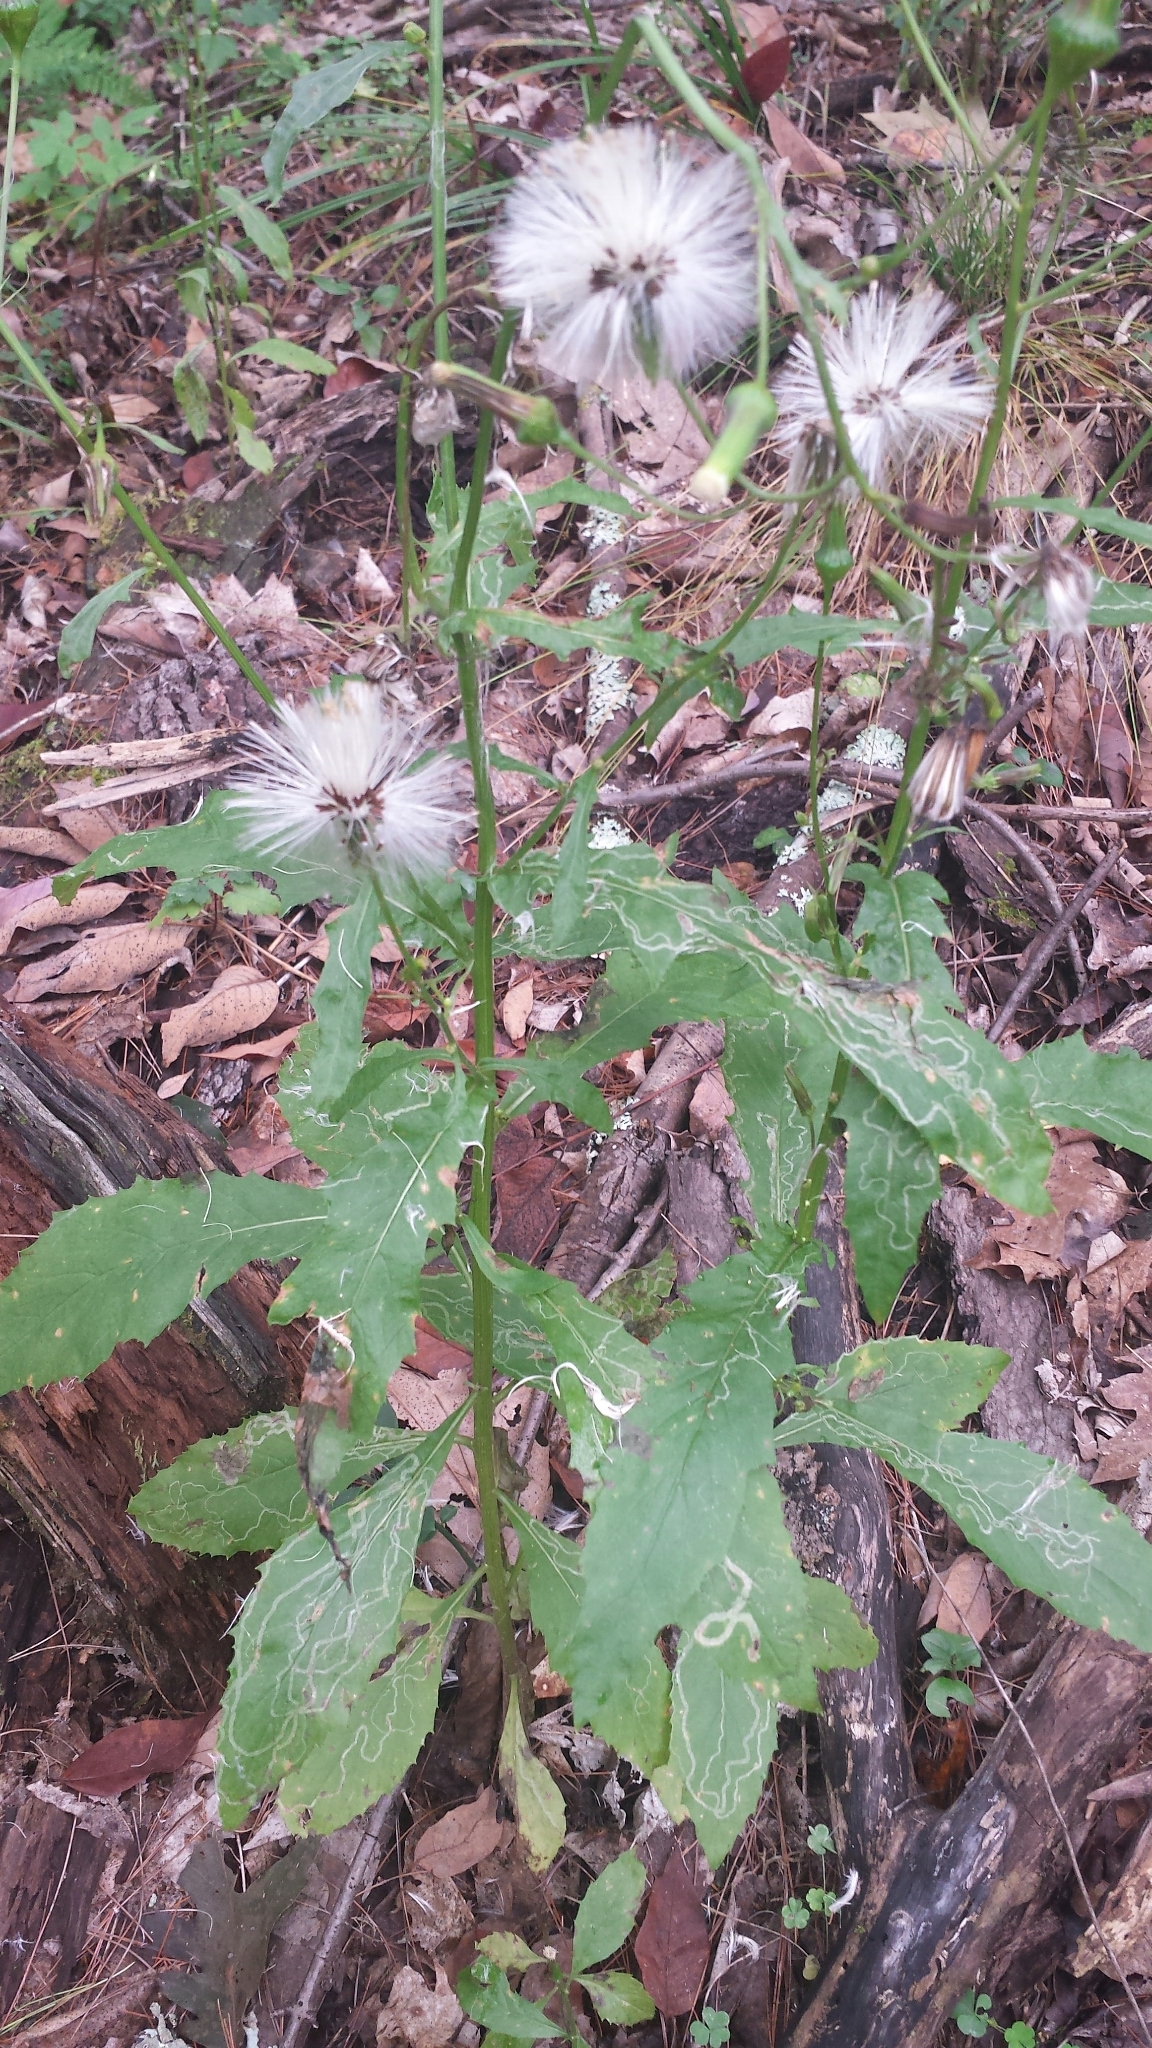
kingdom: Plantae
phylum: Tracheophyta
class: Magnoliopsida
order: Asterales
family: Asteraceae
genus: Erechtites
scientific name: Erechtites hieraciifolius
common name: American burnweed
